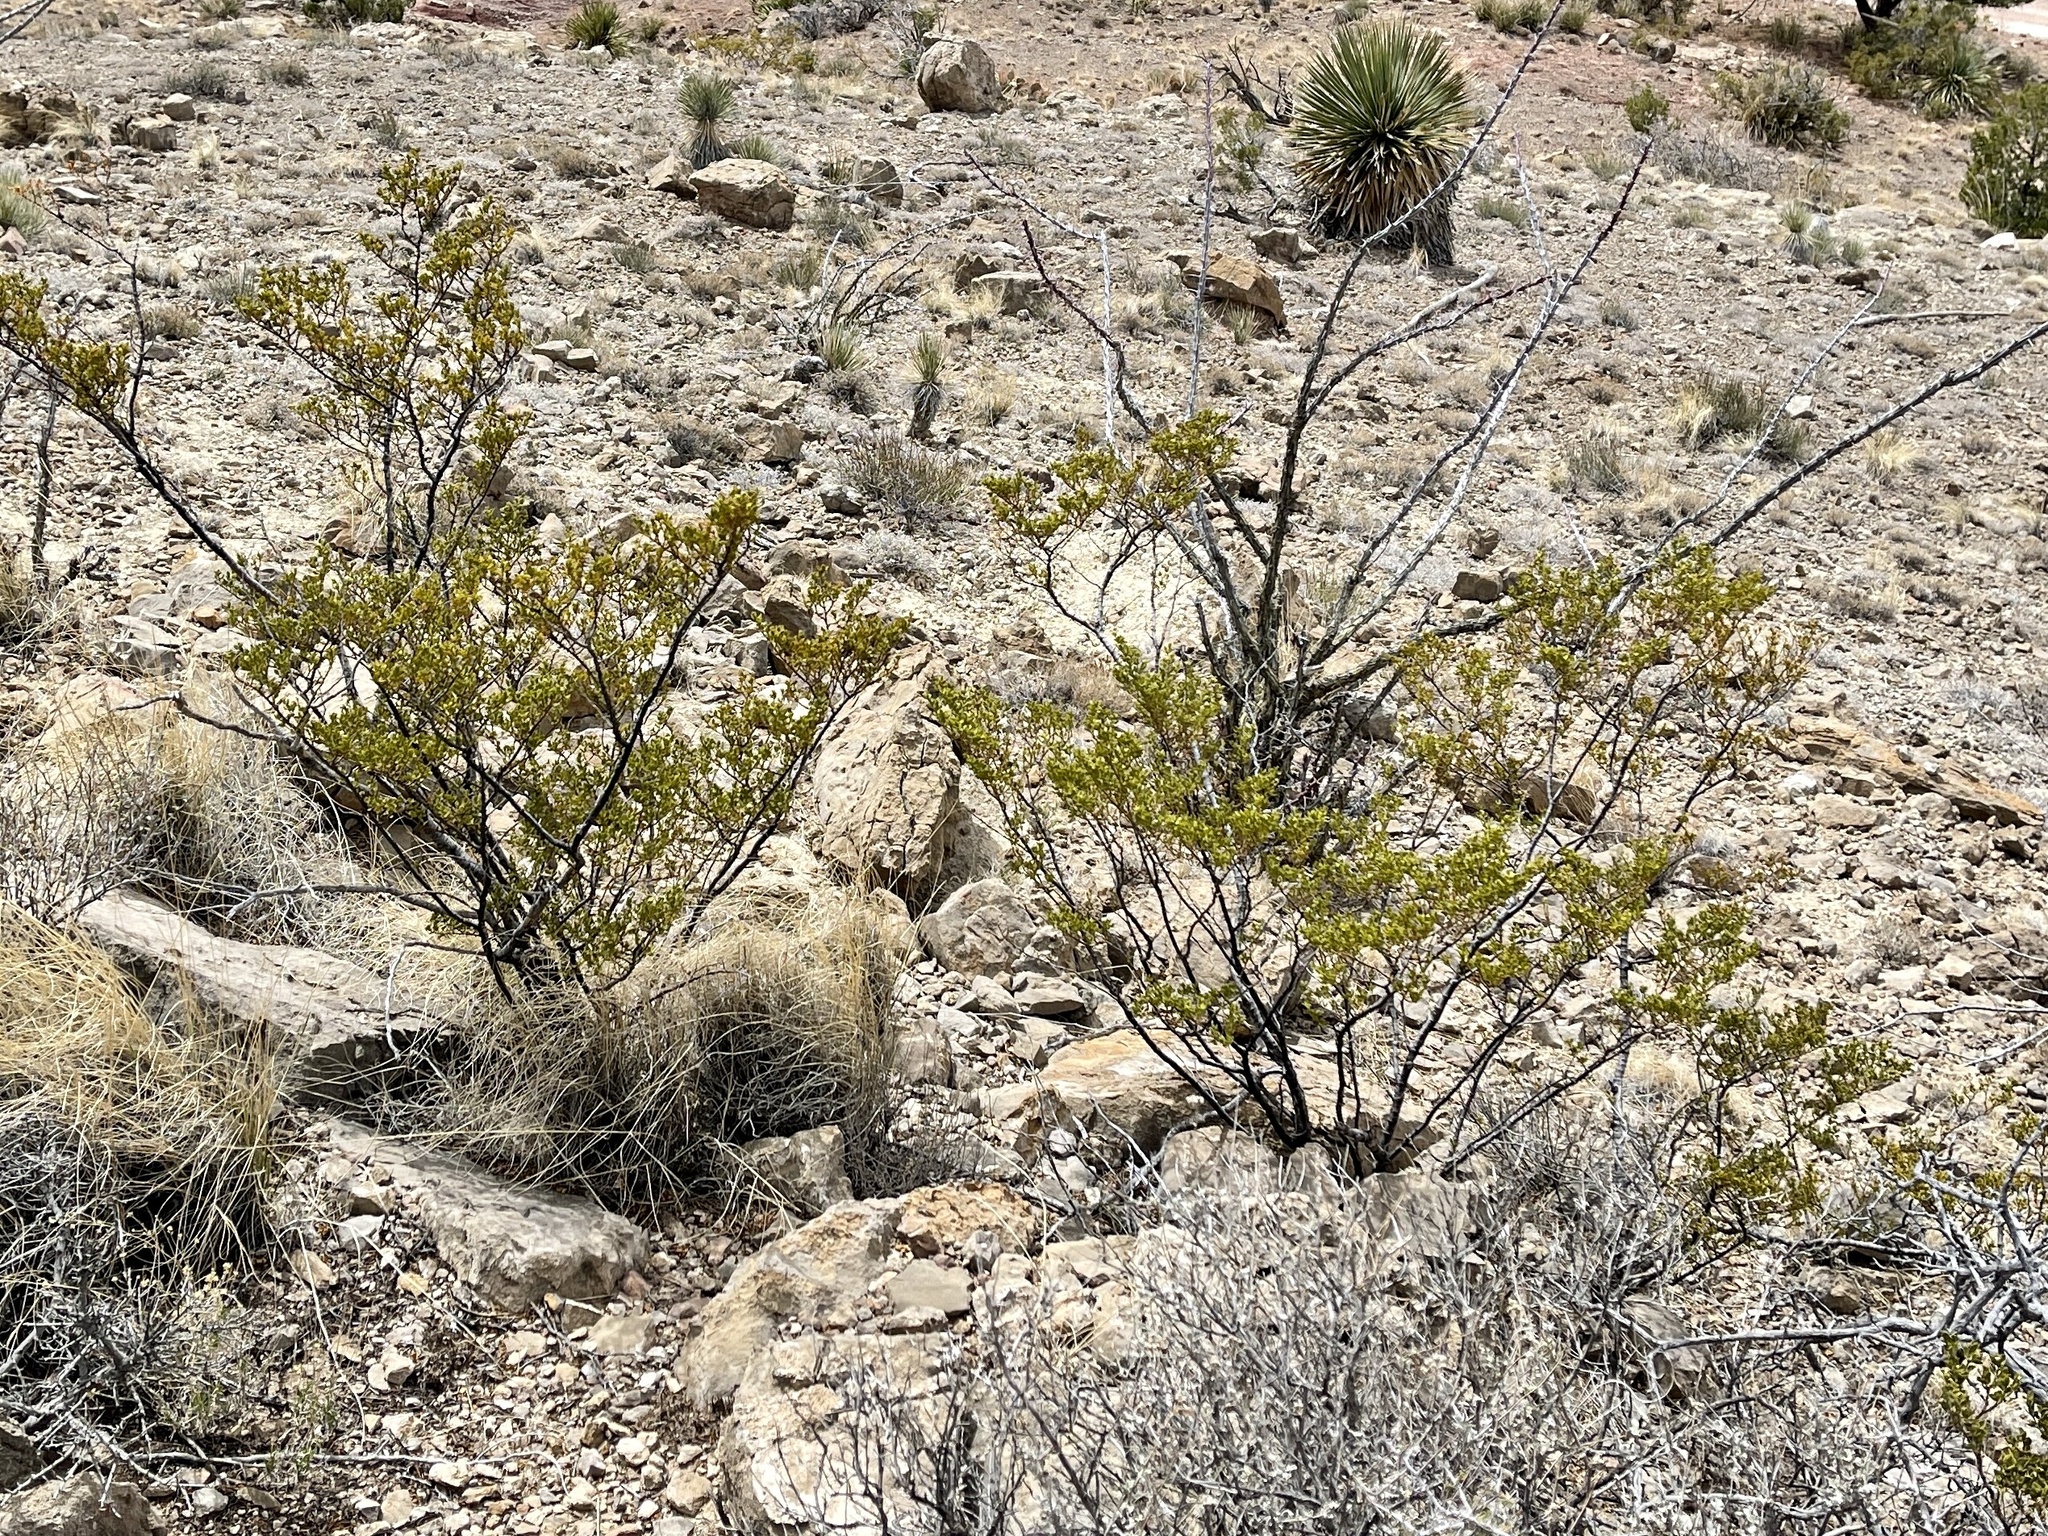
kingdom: Plantae
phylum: Tracheophyta
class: Magnoliopsida
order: Zygophyllales
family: Zygophyllaceae
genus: Larrea
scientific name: Larrea tridentata
